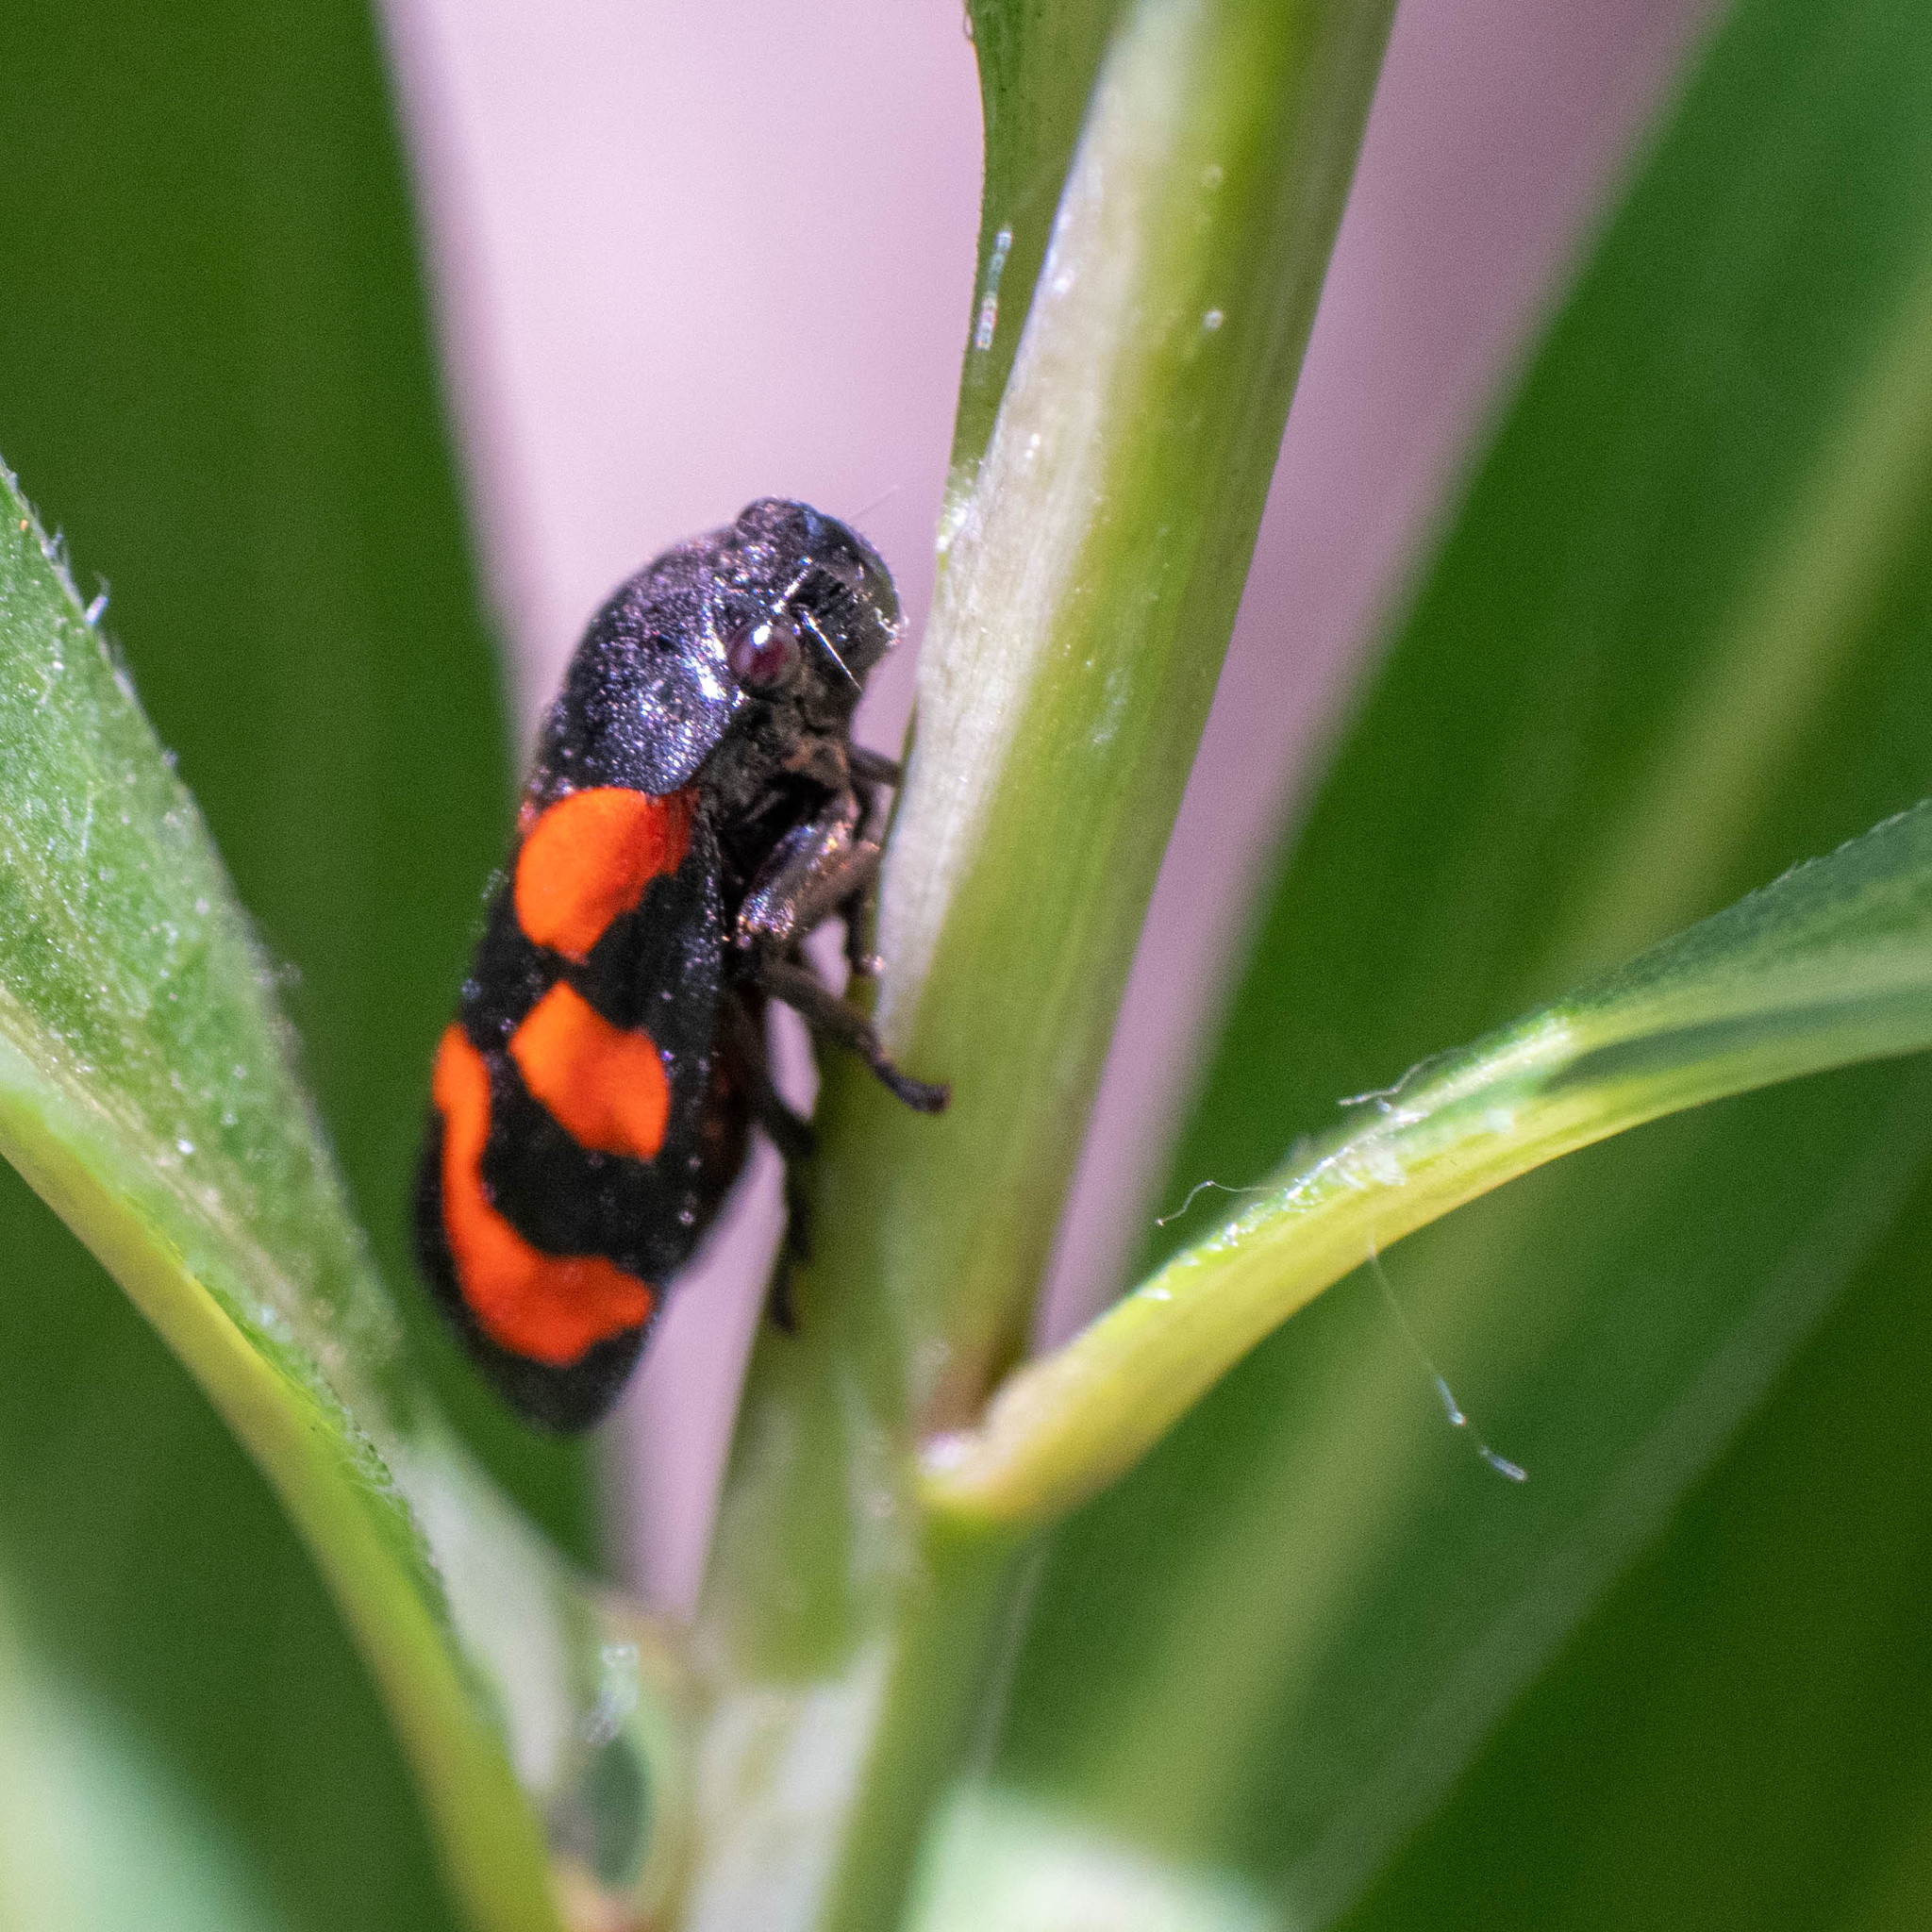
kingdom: Animalia
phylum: Arthropoda
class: Insecta
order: Hemiptera
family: Cercopidae
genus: Cercopis
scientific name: Cercopis vulnerata
